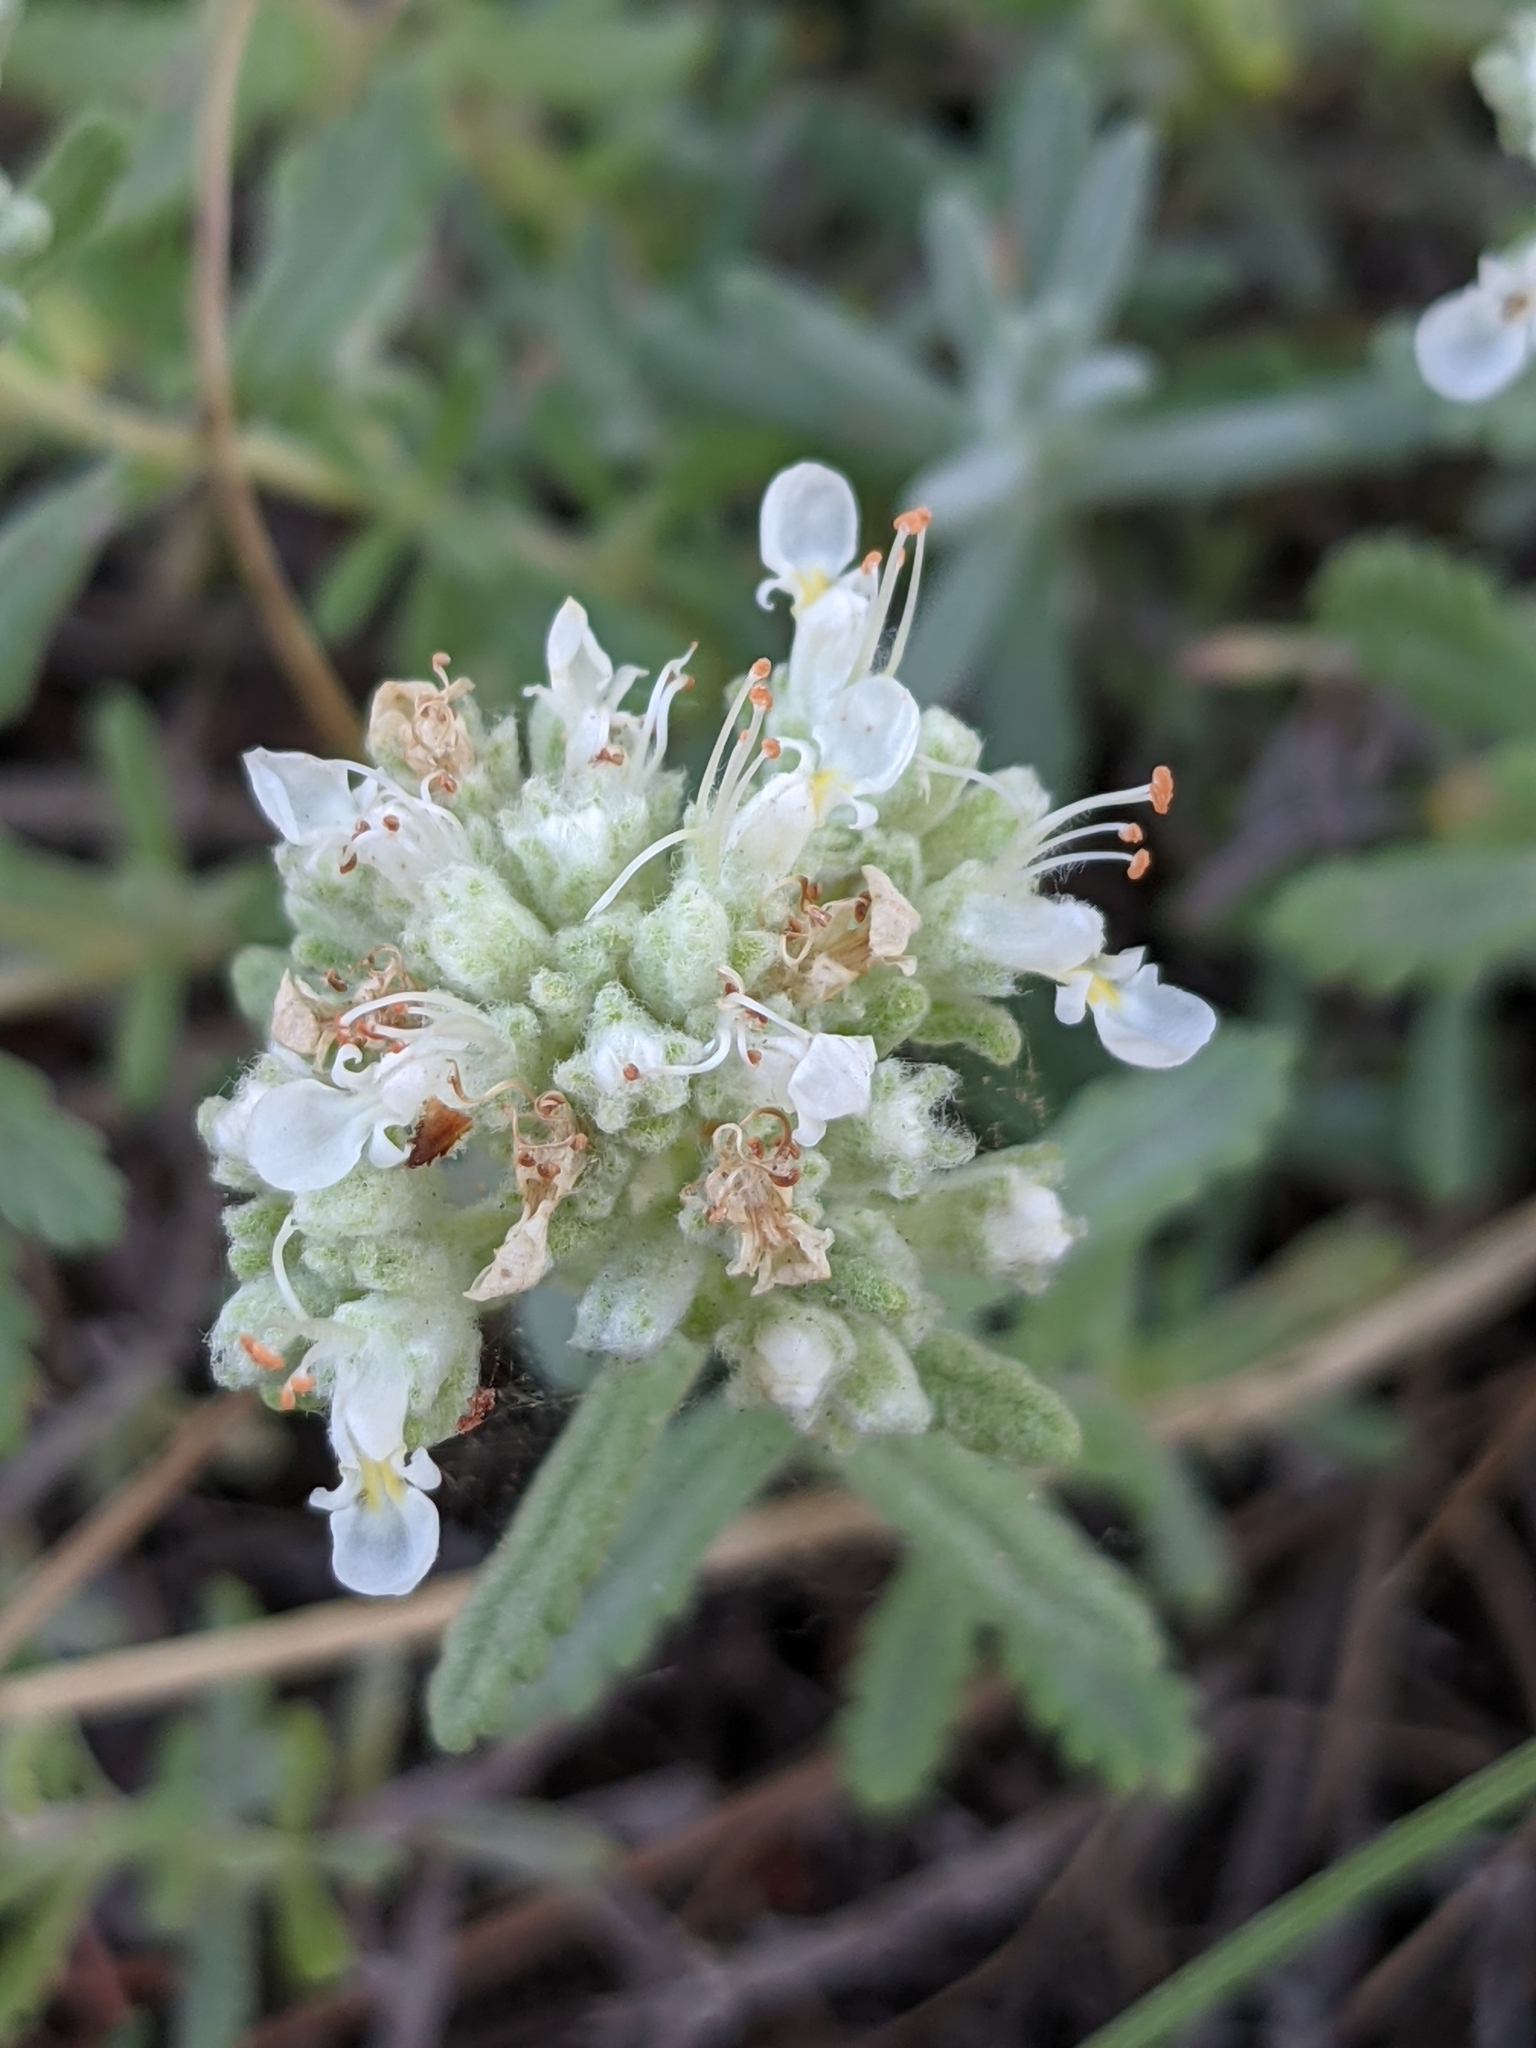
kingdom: Plantae
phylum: Tracheophyta
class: Magnoliopsida
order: Lamiales
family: Lamiaceae
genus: Teucrium
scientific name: Teucrium polium
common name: Poley
